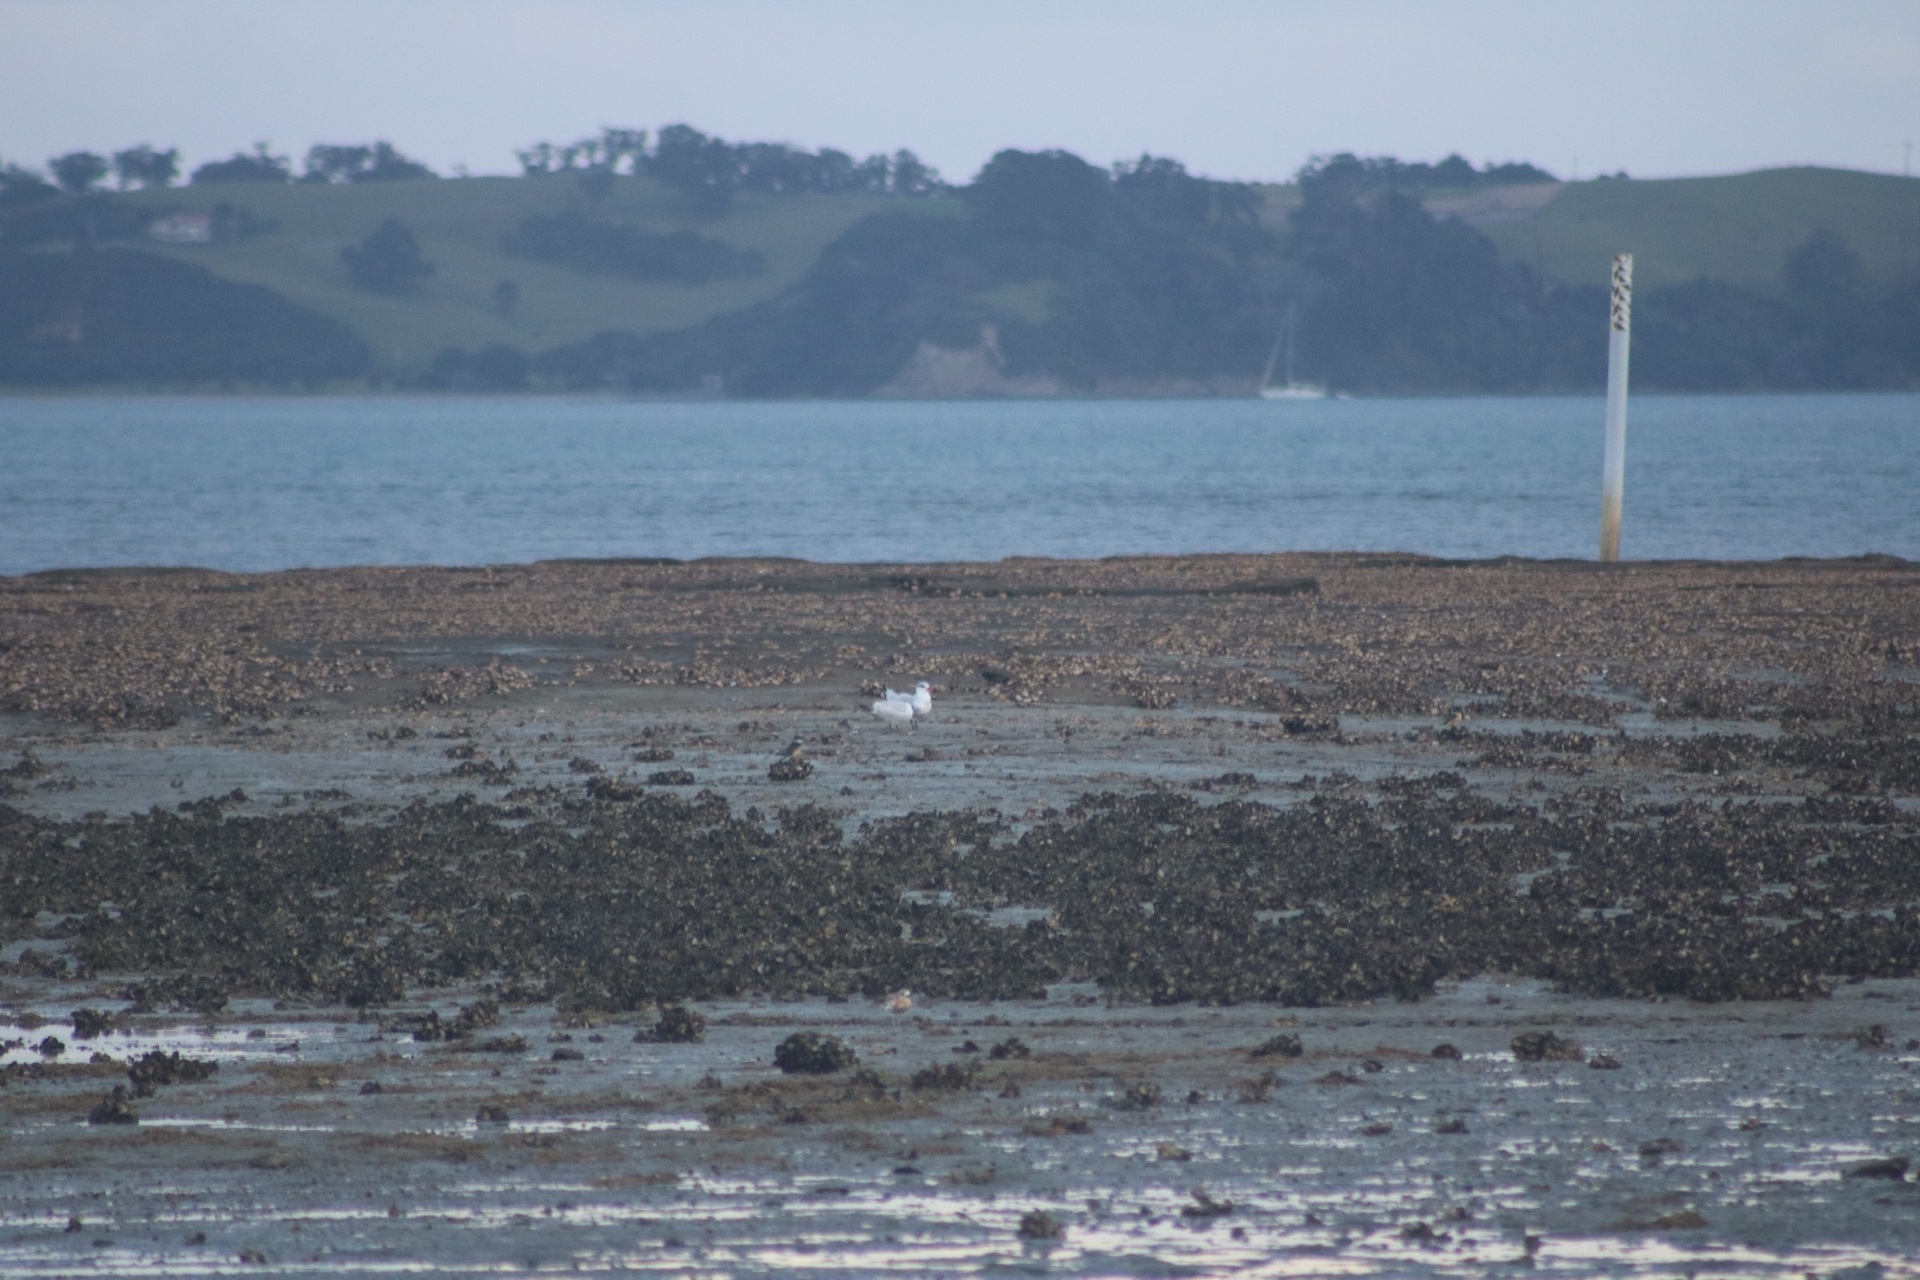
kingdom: Animalia
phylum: Chordata
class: Aves
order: Charadriiformes
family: Laridae
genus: Hydroprogne
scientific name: Hydroprogne caspia
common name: Caspian tern
